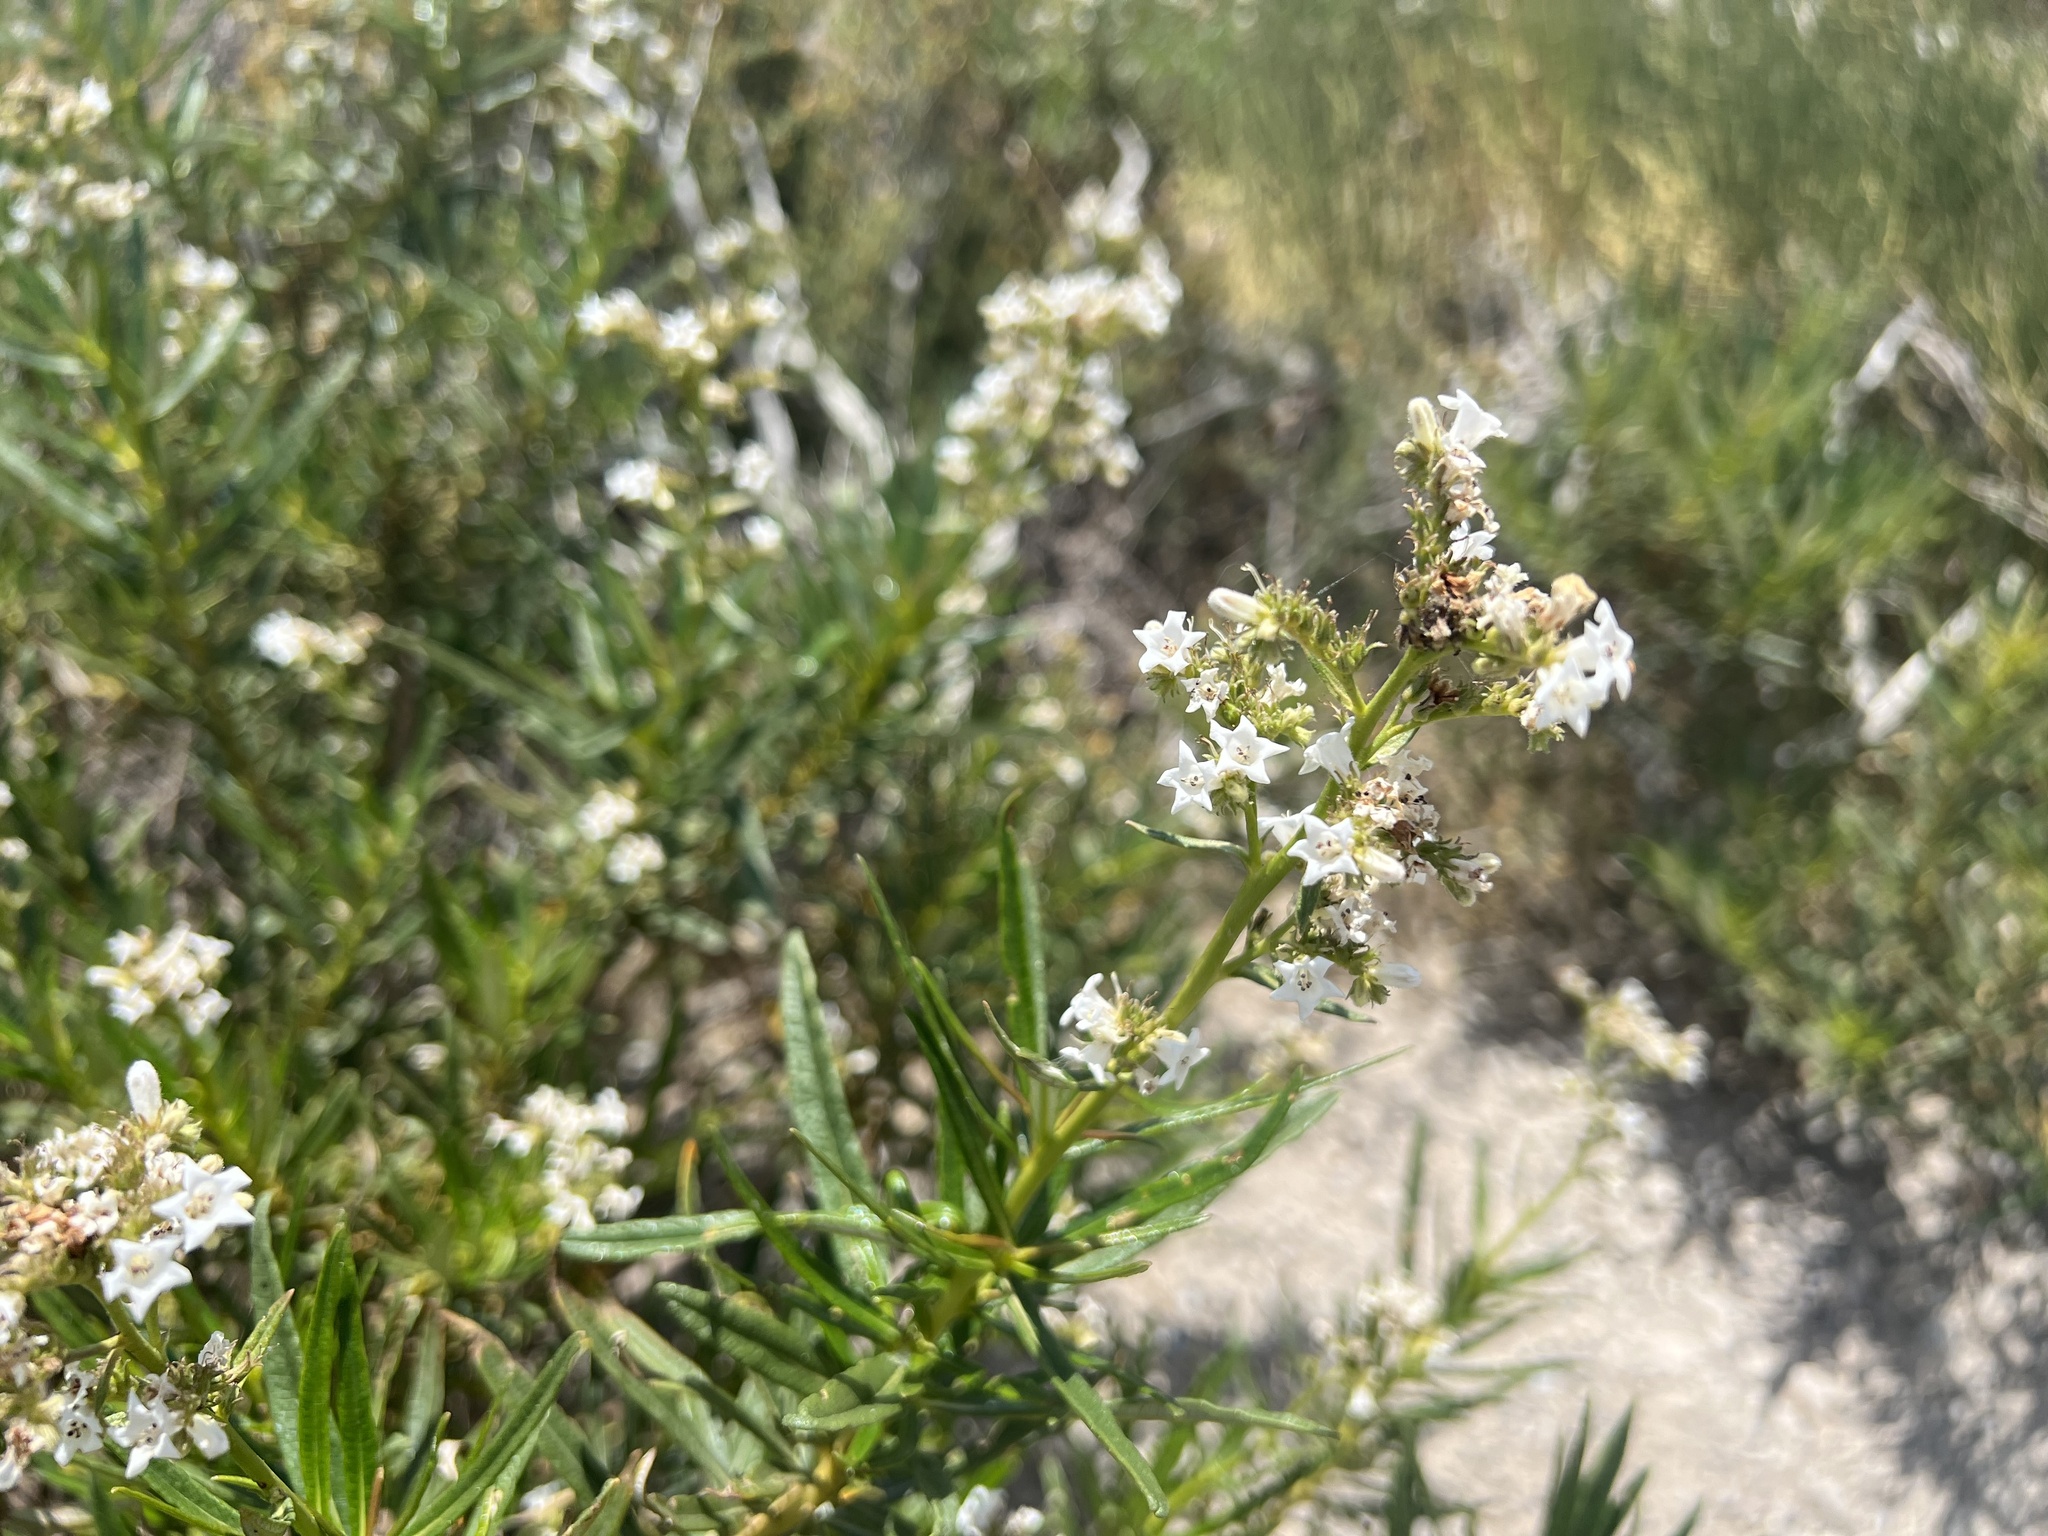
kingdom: Plantae
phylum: Tracheophyta
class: Magnoliopsida
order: Boraginales
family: Namaceae
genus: Eriodictyon
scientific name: Eriodictyon angustifolium
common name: Narrow-leaf yerba santa
